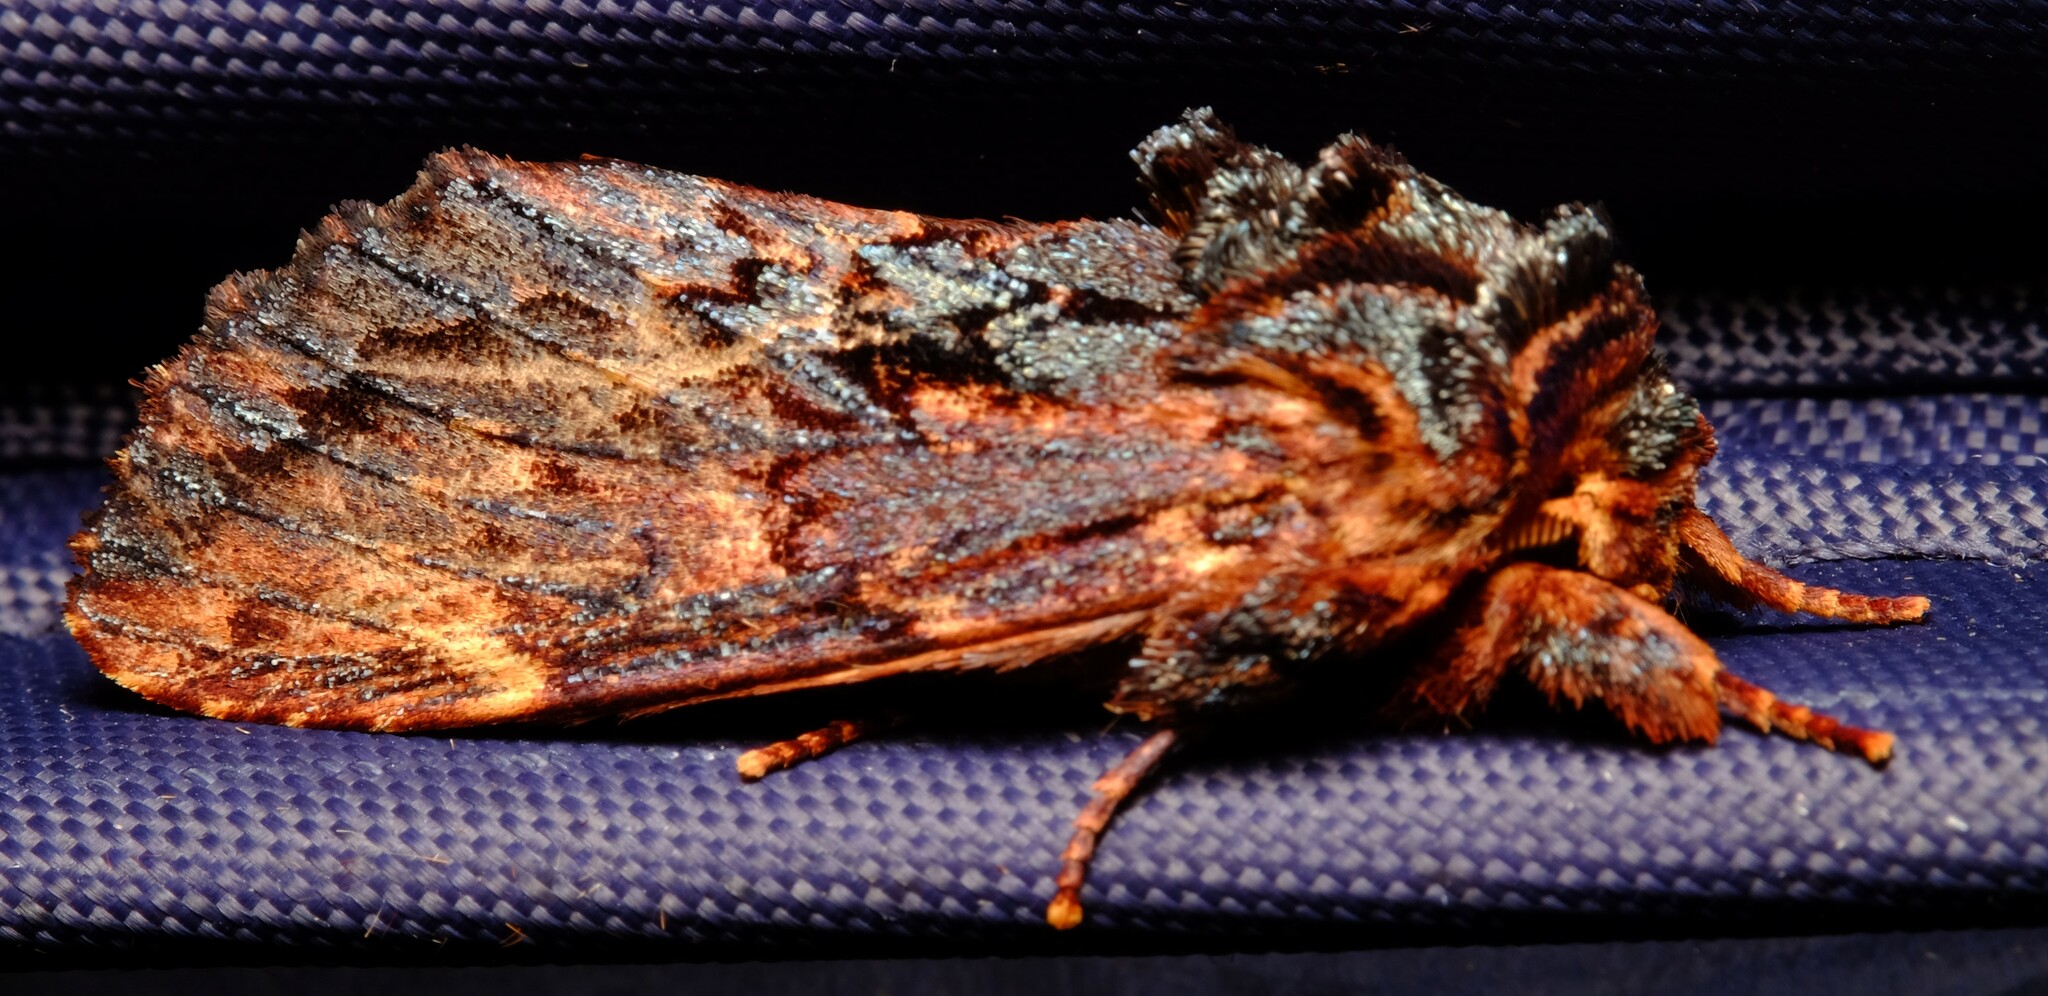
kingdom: Animalia
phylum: Arthropoda
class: Insecta
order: Lepidoptera
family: Notodontidae
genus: Sorama
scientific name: Sorama bicolor
